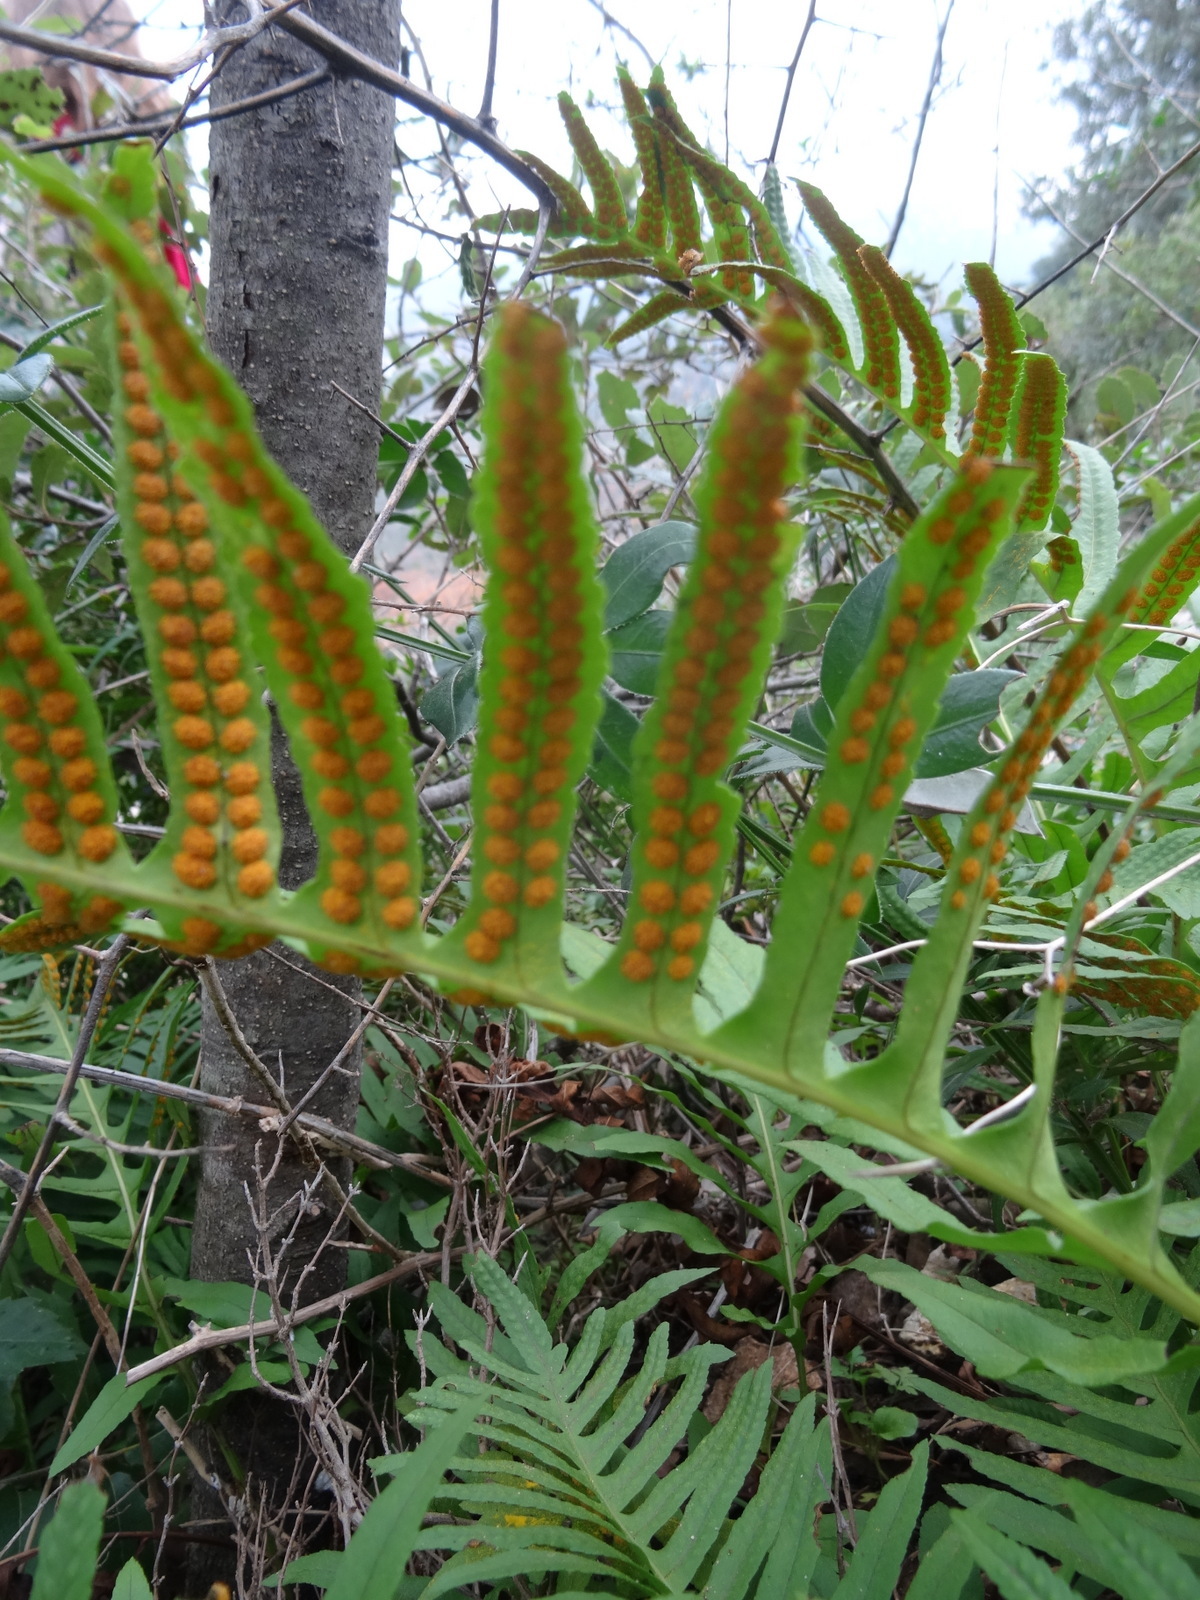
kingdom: Plantae
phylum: Tracheophyta
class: Polypodiopsida
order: Polypodiales
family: Polypodiaceae
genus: Polypodium
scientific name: Polypodium cambricum
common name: Southern polypody
